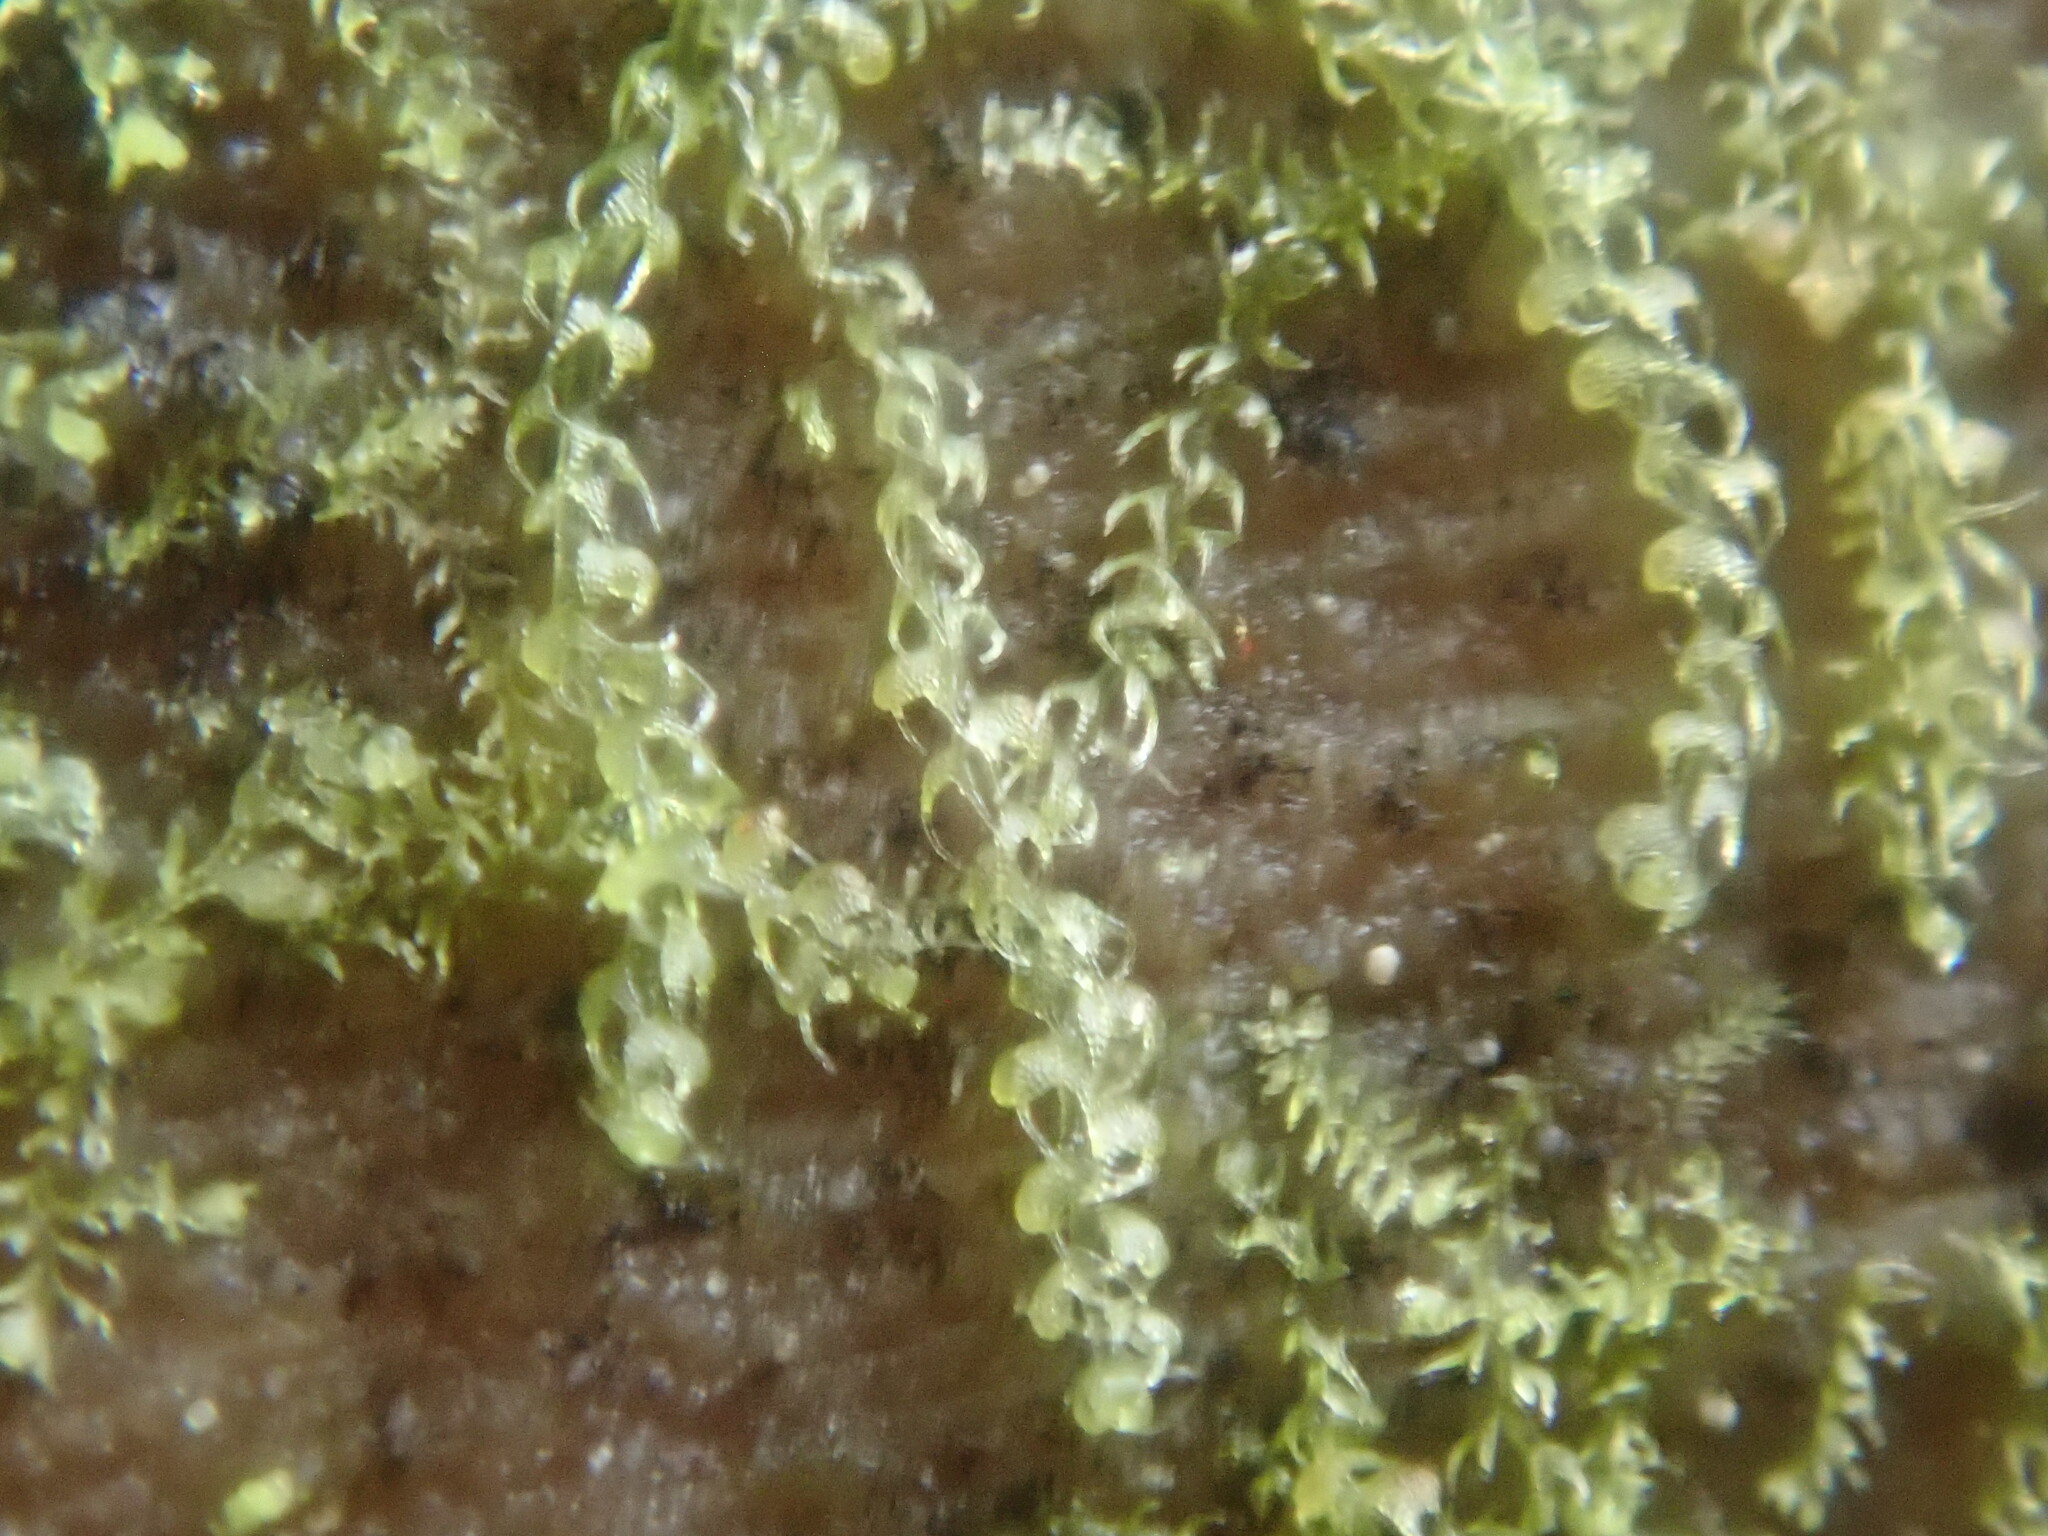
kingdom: Plantae
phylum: Marchantiophyta
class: Jungermanniopsida
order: Jungermanniales
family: Cephaloziaceae
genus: Nowellia
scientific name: Nowellia curvifolia
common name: Wood rustwort
